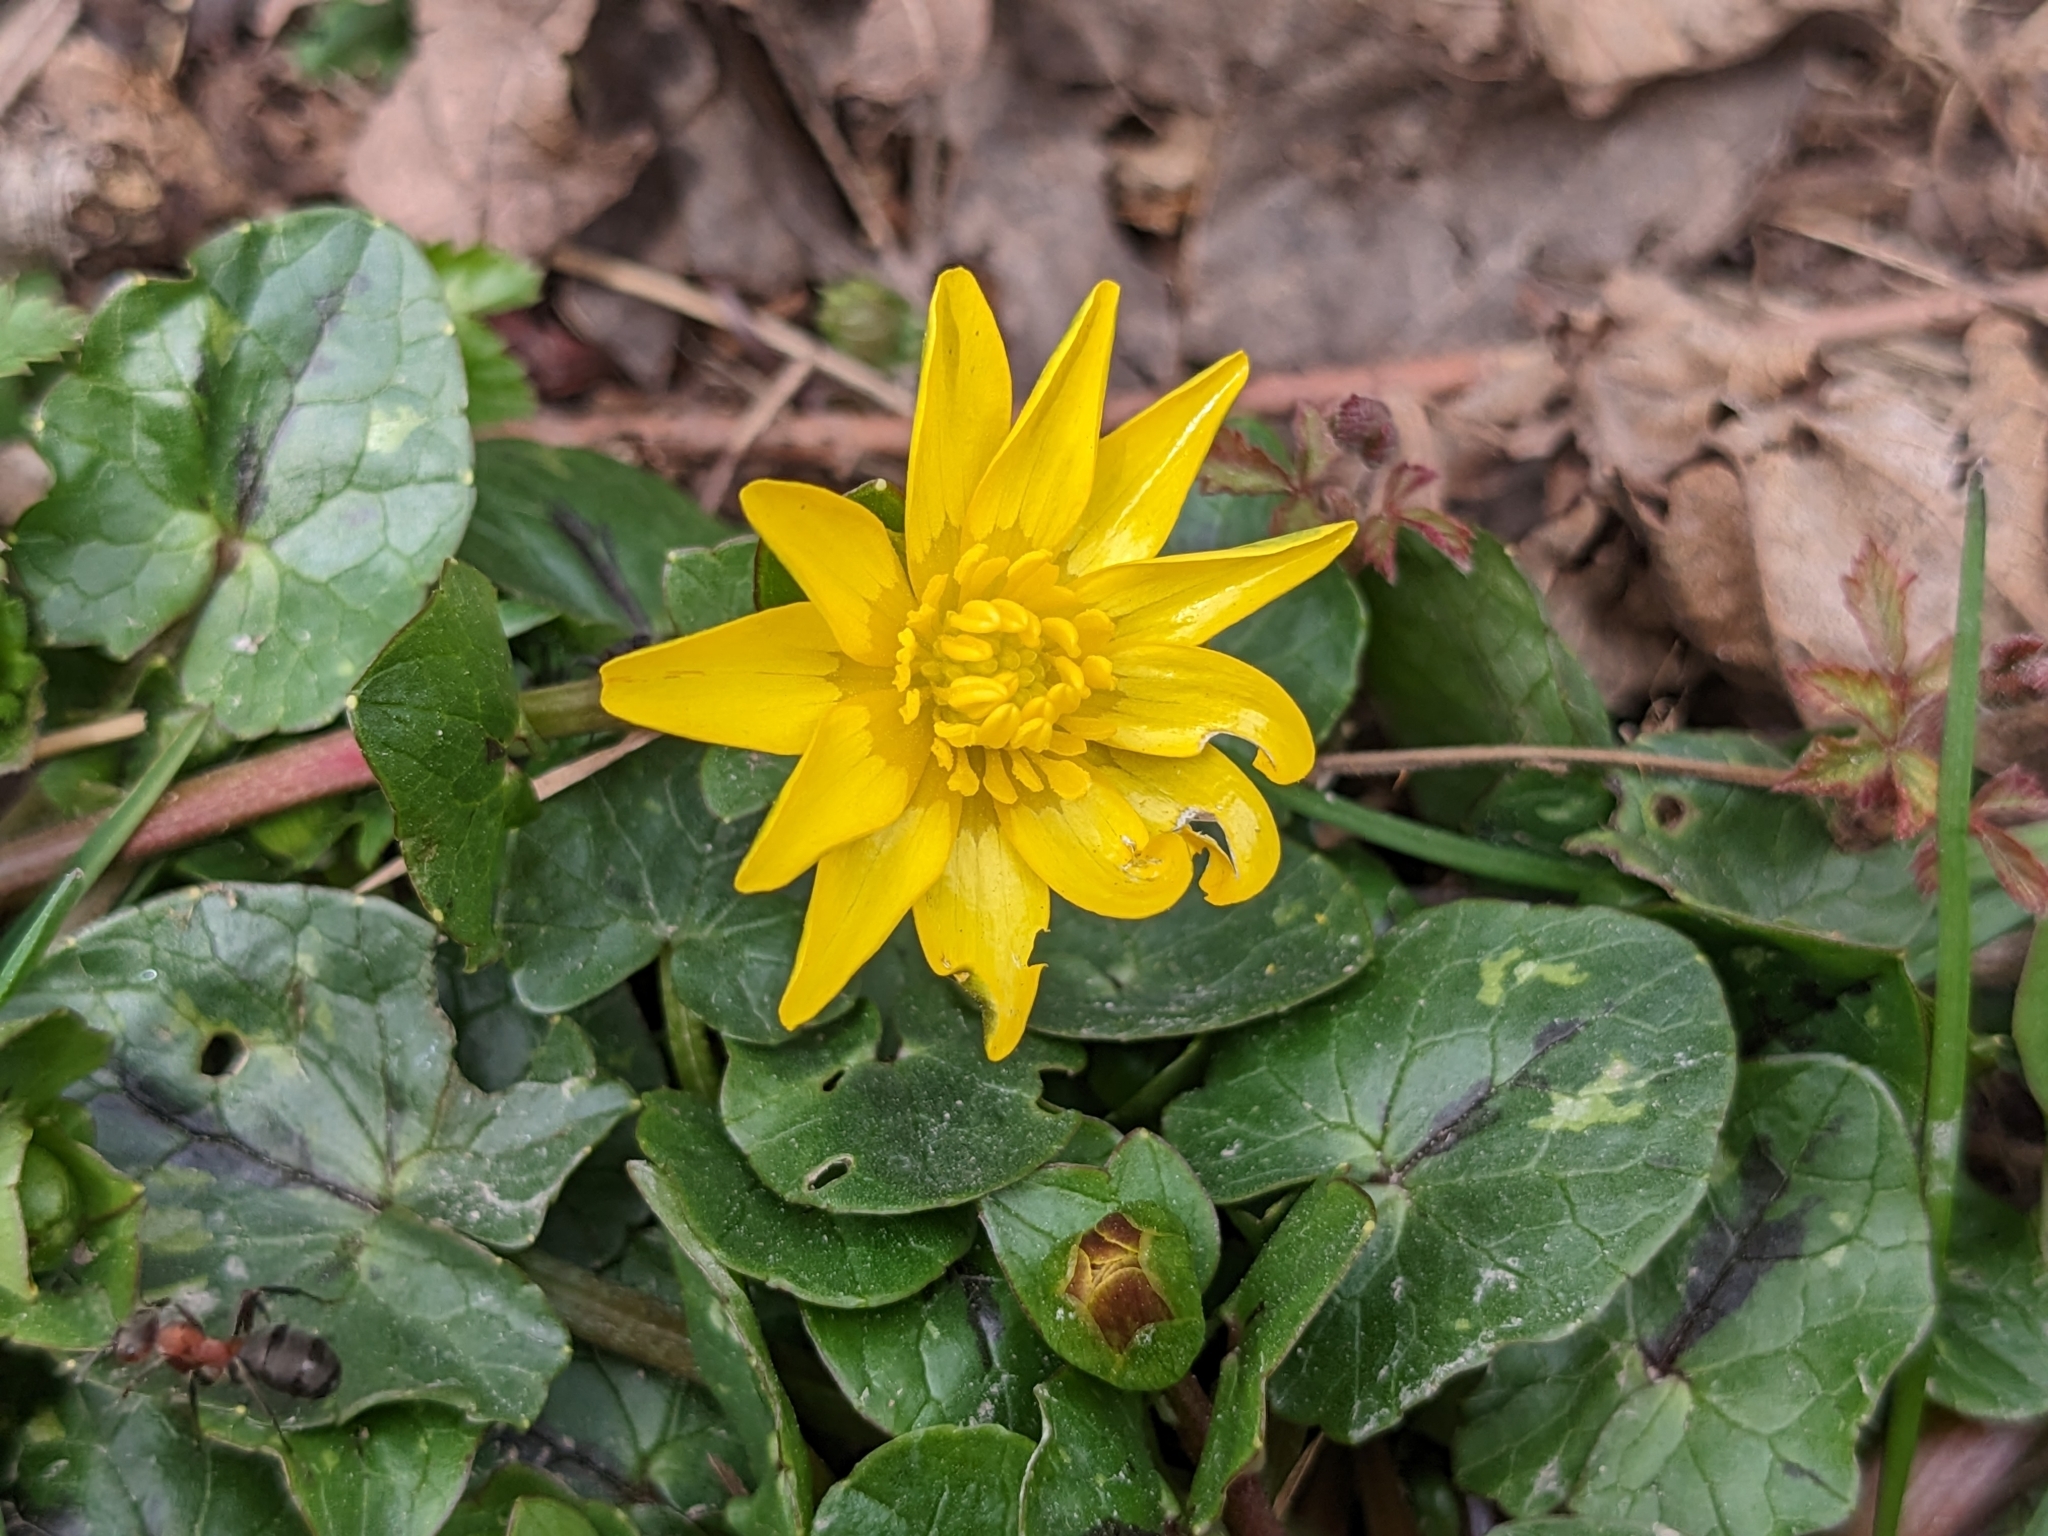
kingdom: Plantae
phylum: Tracheophyta
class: Magnoliopsida
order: Ranunculales
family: Ranunculaceae
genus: Ficaria
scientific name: Ficaria verna
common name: Lesser celandine
